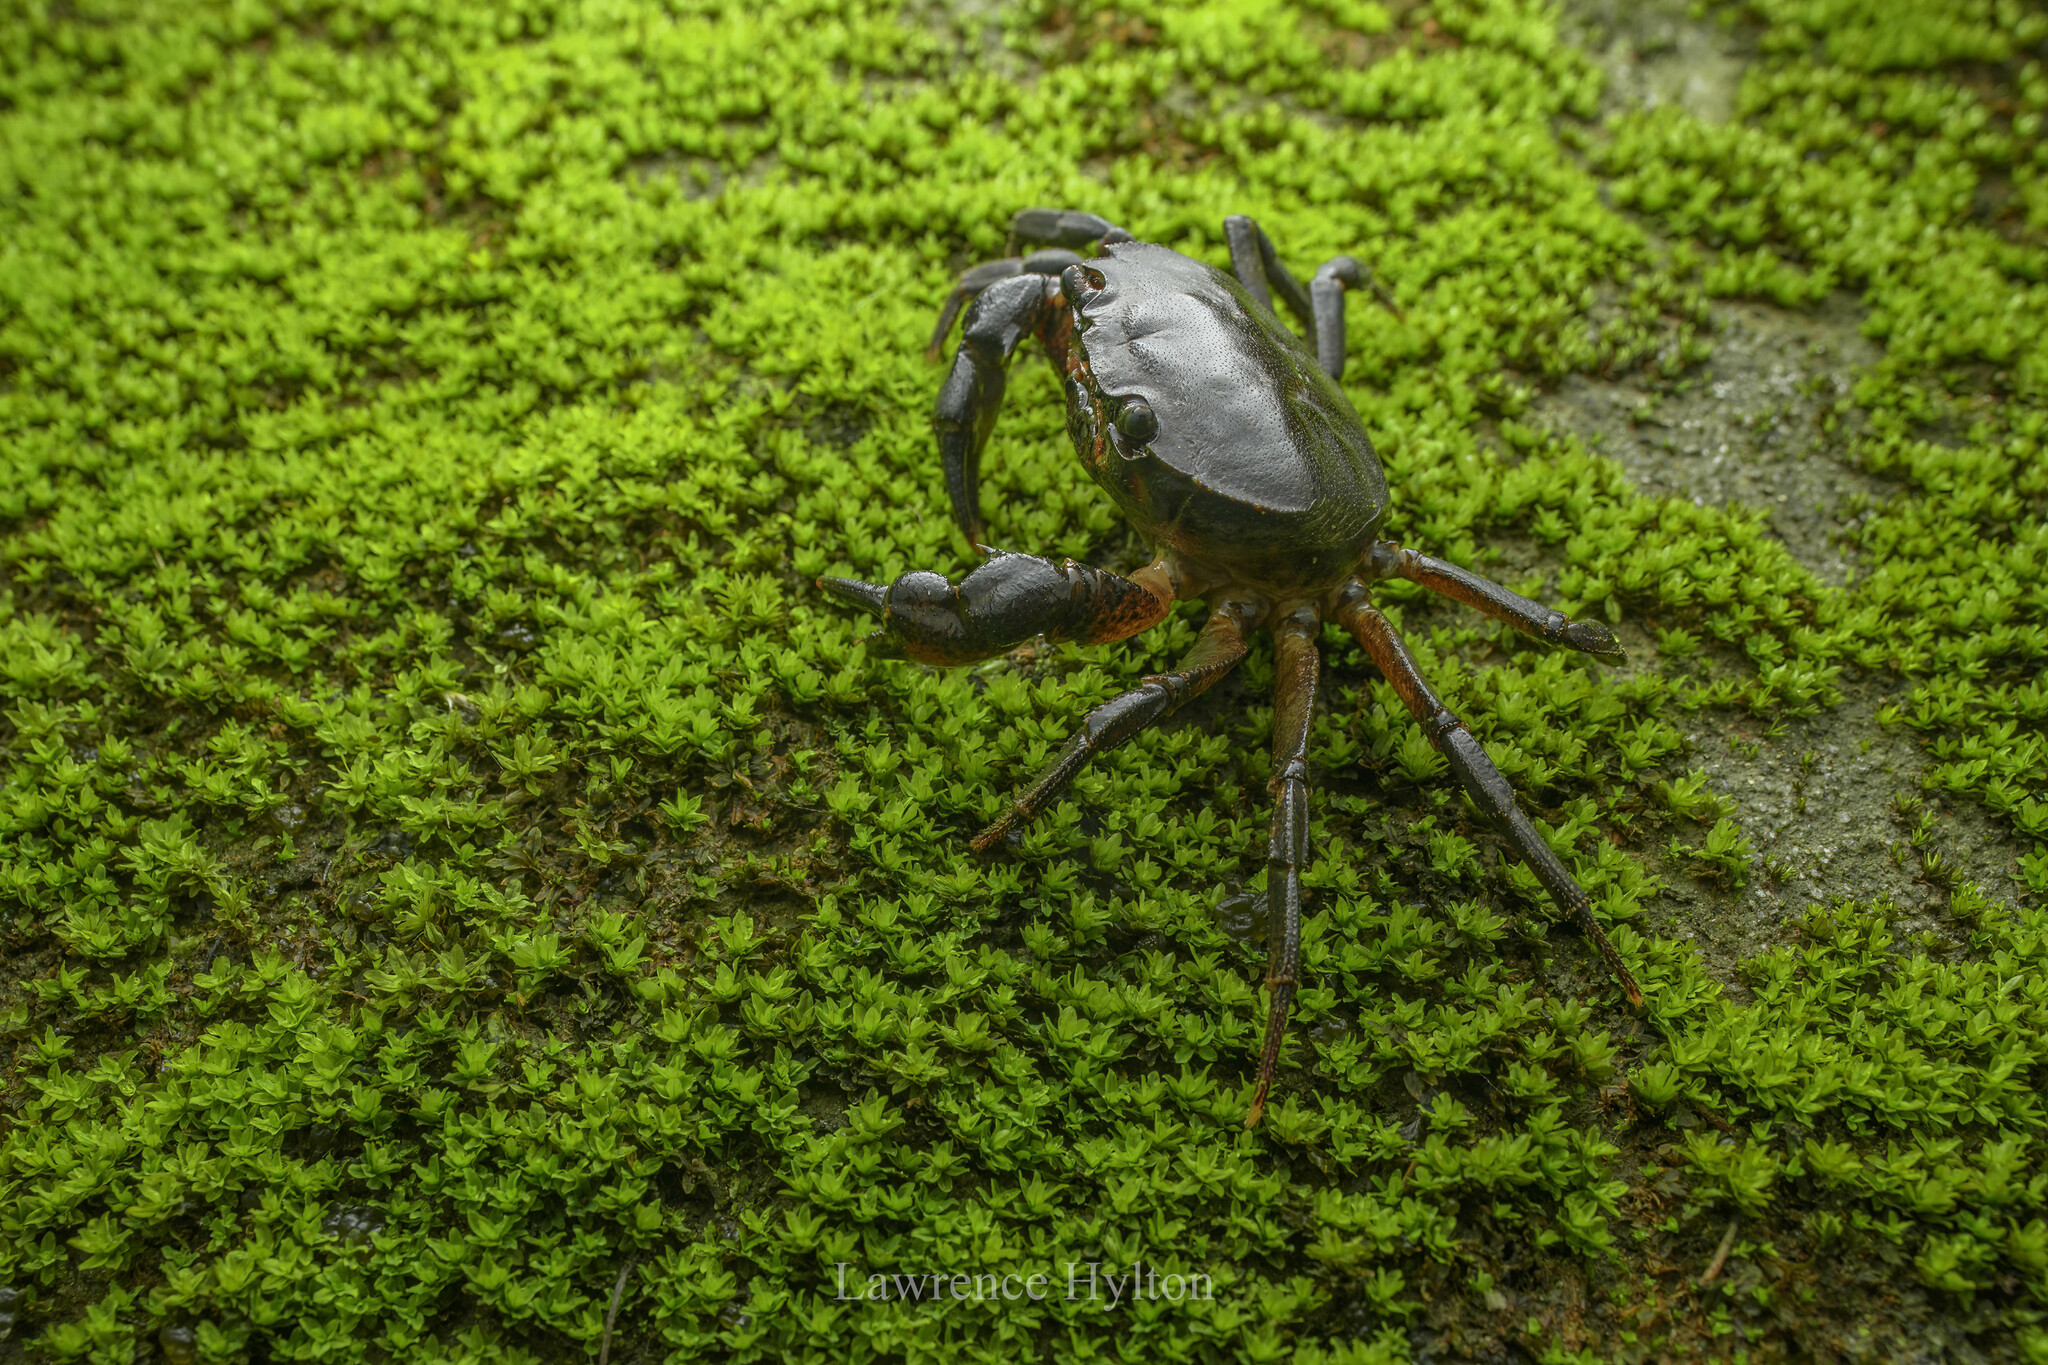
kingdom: Animalia
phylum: Arthropoda
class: Malacostraca
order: Decapoda
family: Potamidae
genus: Sinolapotamon
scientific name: Sinolapotamon anacoluthon
